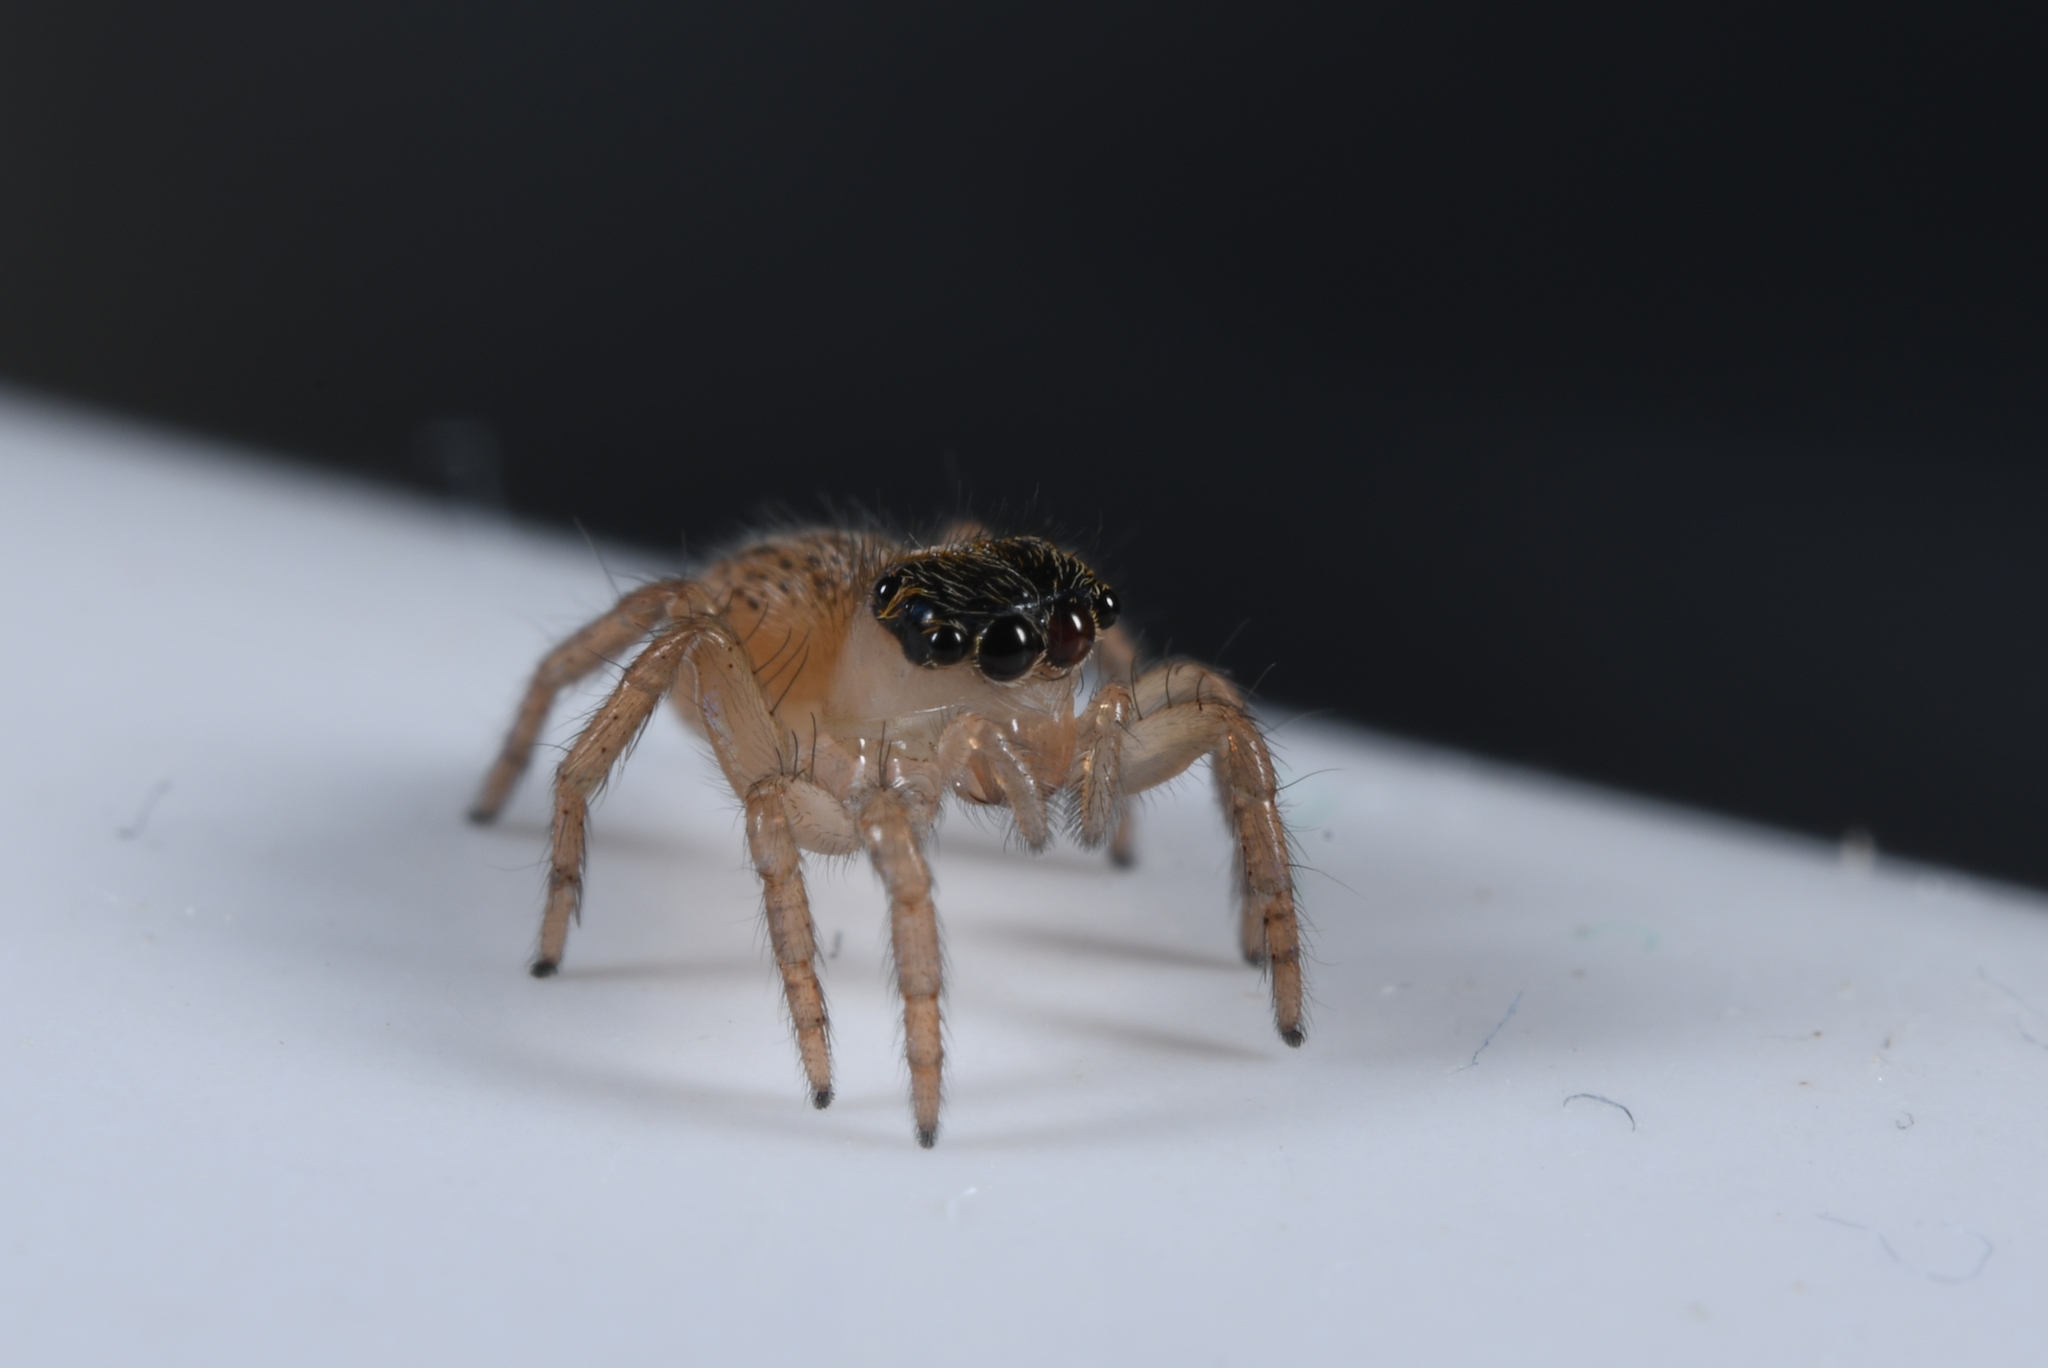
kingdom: Animalia
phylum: Arthropoda
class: Arachnida
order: Araneae
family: Salticidae
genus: Saitis
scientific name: Saitis barbipes
